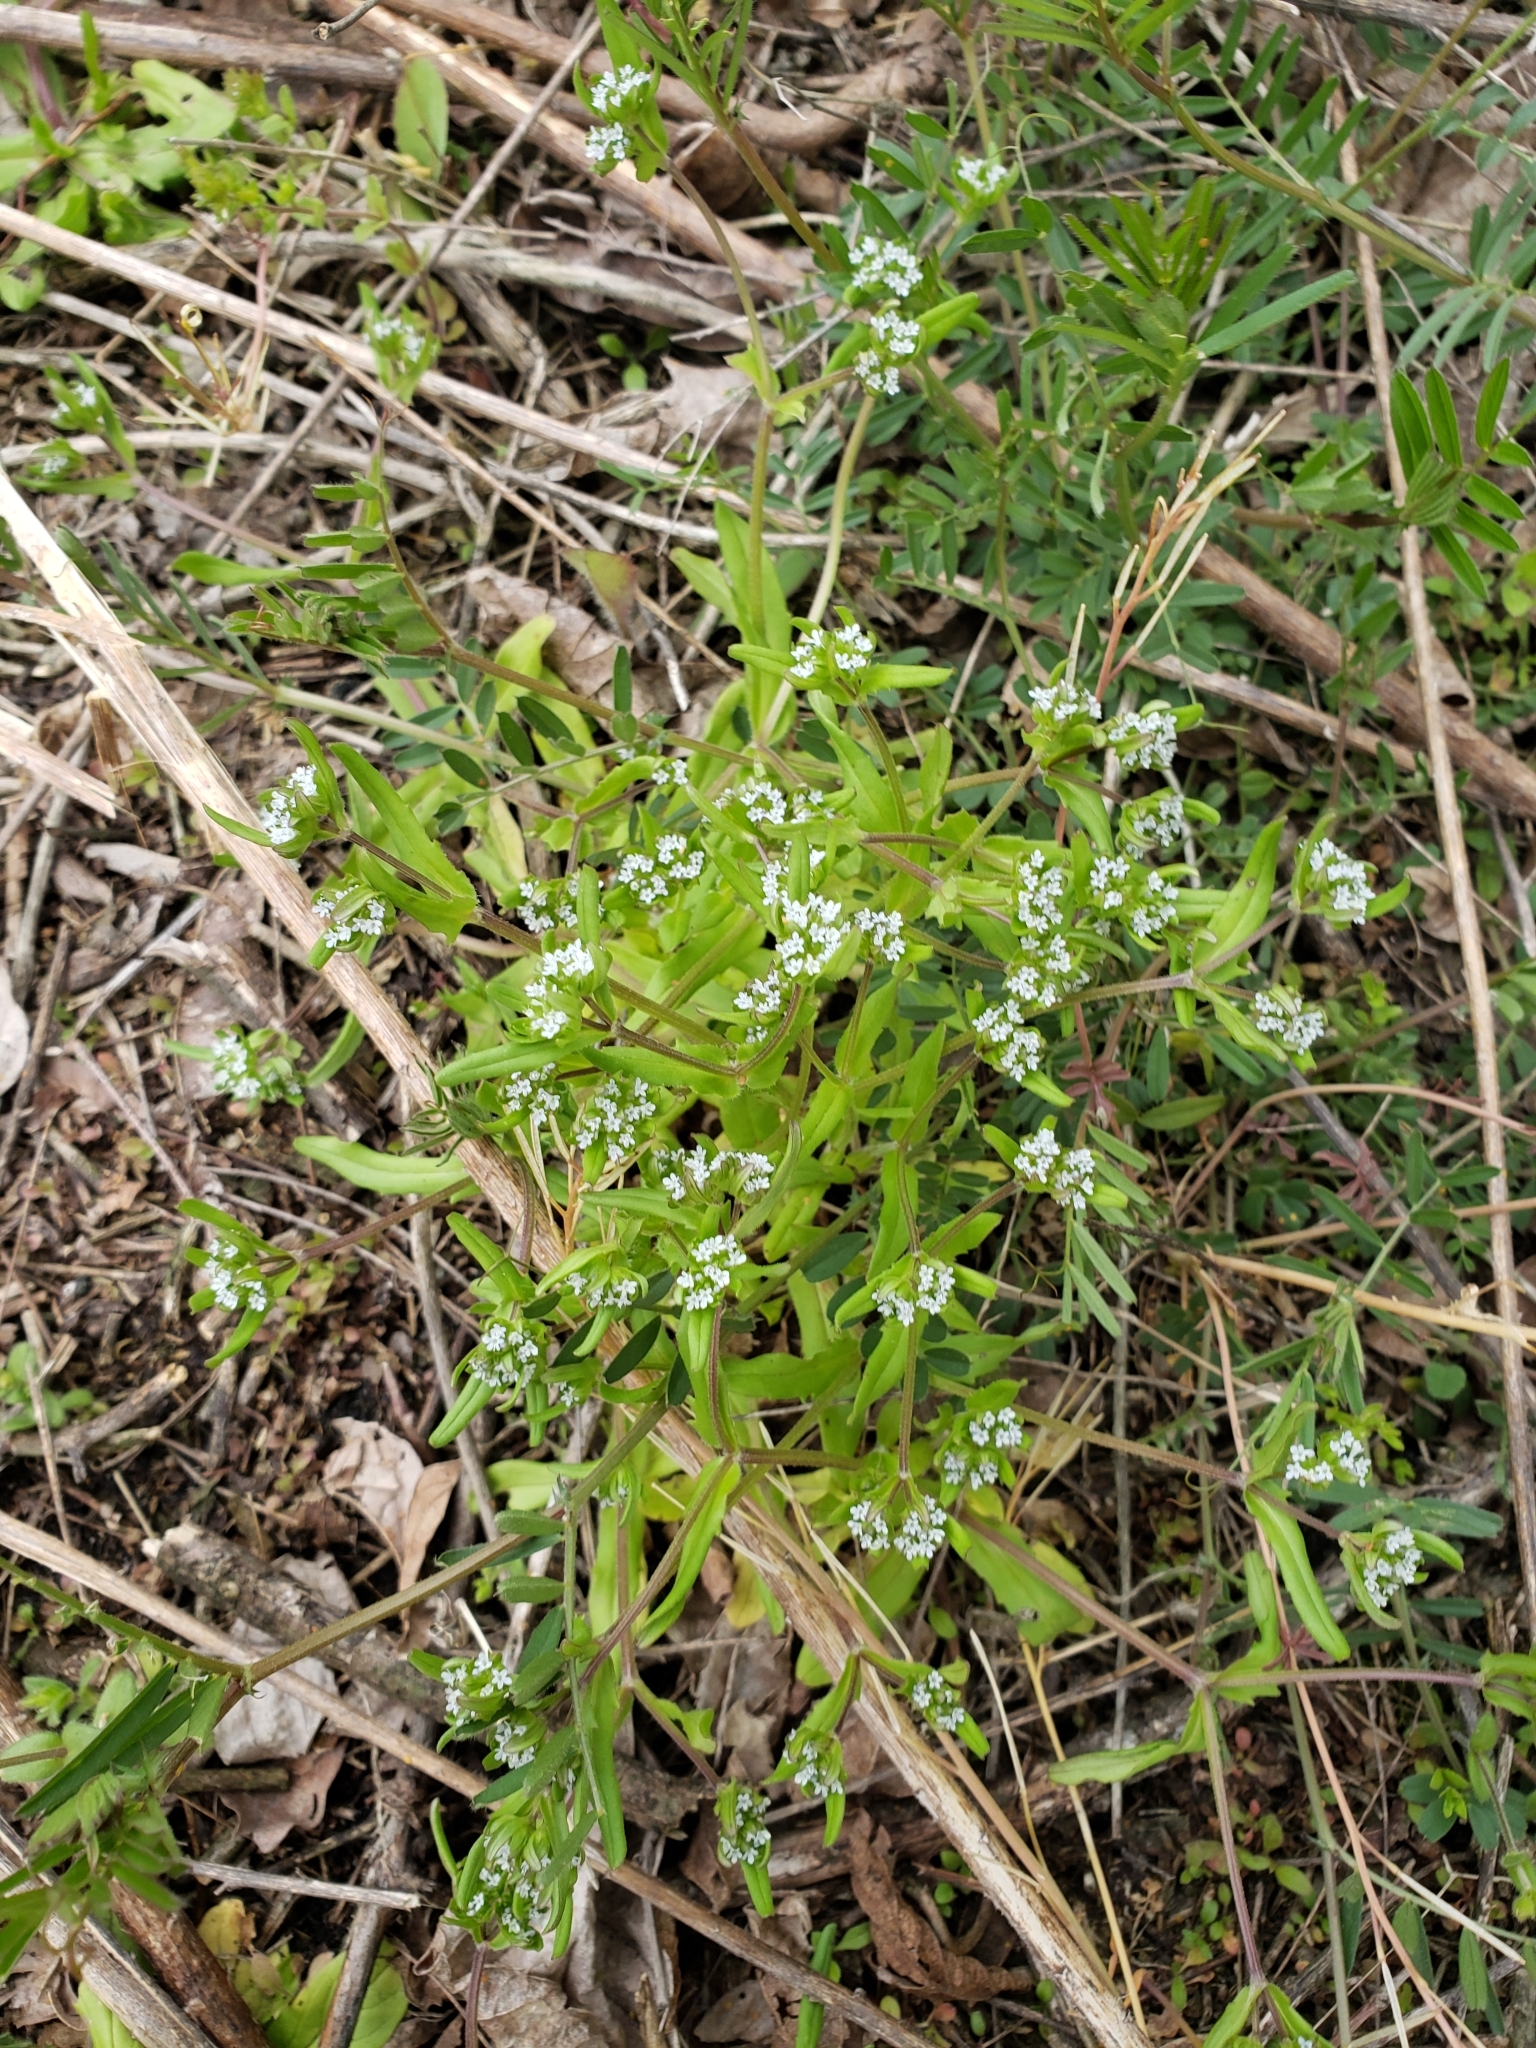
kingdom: Plantae
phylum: Tracheophyta
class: Magnoliopsida
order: Dipsacales
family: Caprifoliaceae
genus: Valerianella
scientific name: Valerianella locusta
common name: Common cornsalad
